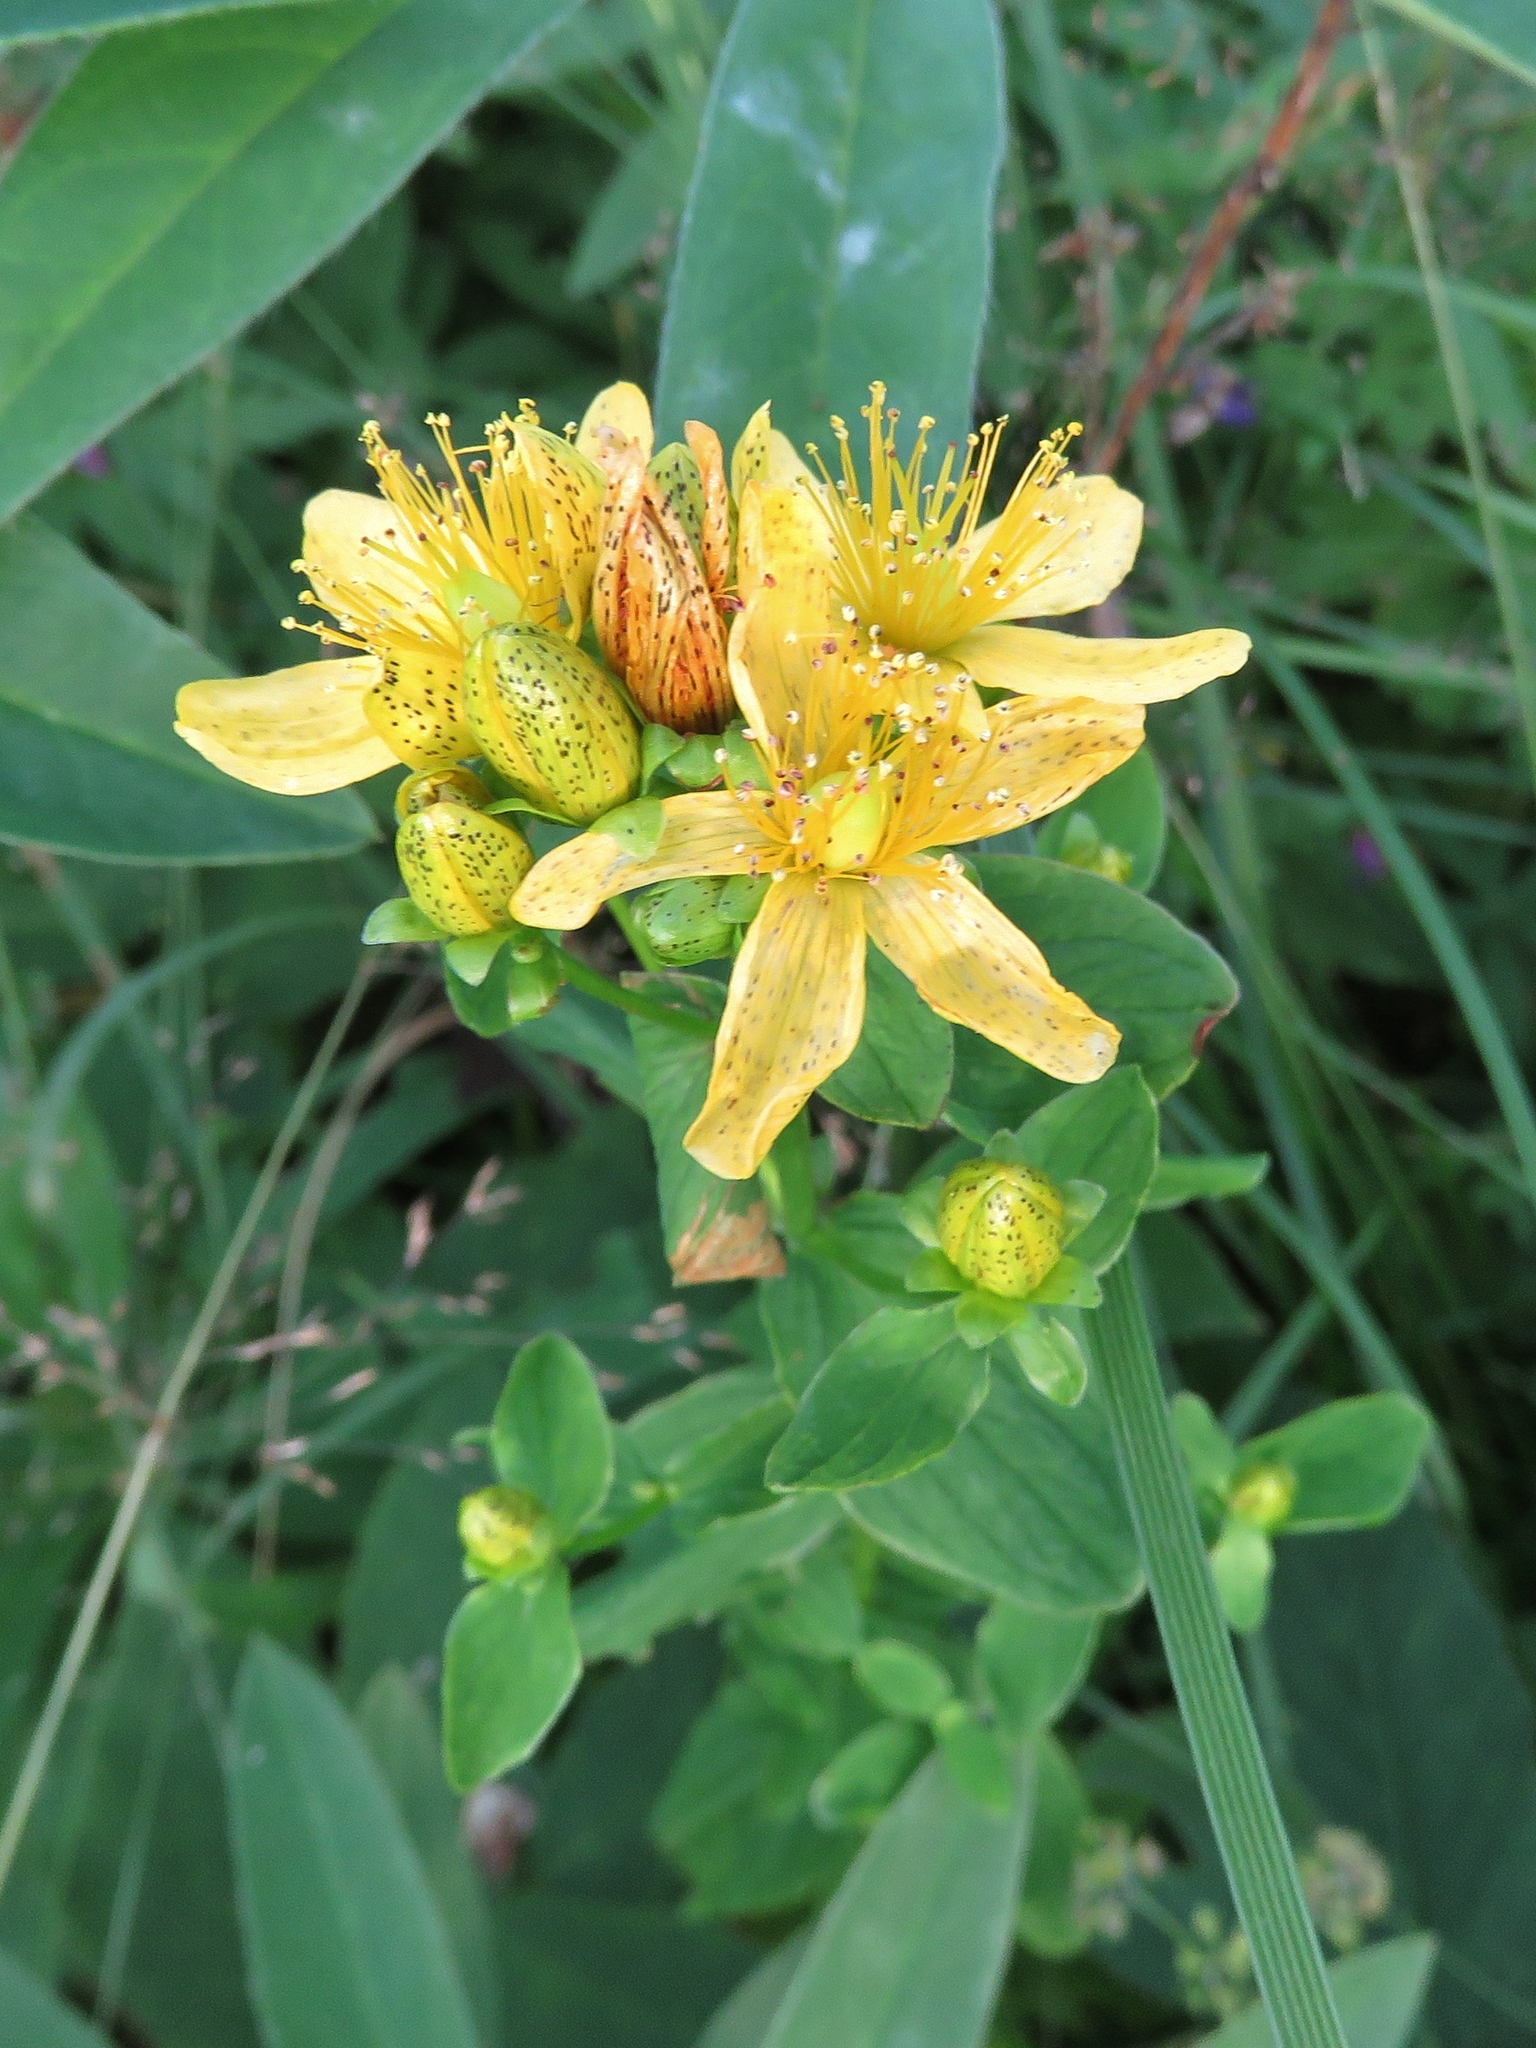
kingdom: Plantae
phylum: Tracheophyta
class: Magnoliopsida
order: Malpighiales
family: Hypericaceae
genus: Hypericum
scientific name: Hypericum maculatum
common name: Imperforate st. john's-wort
